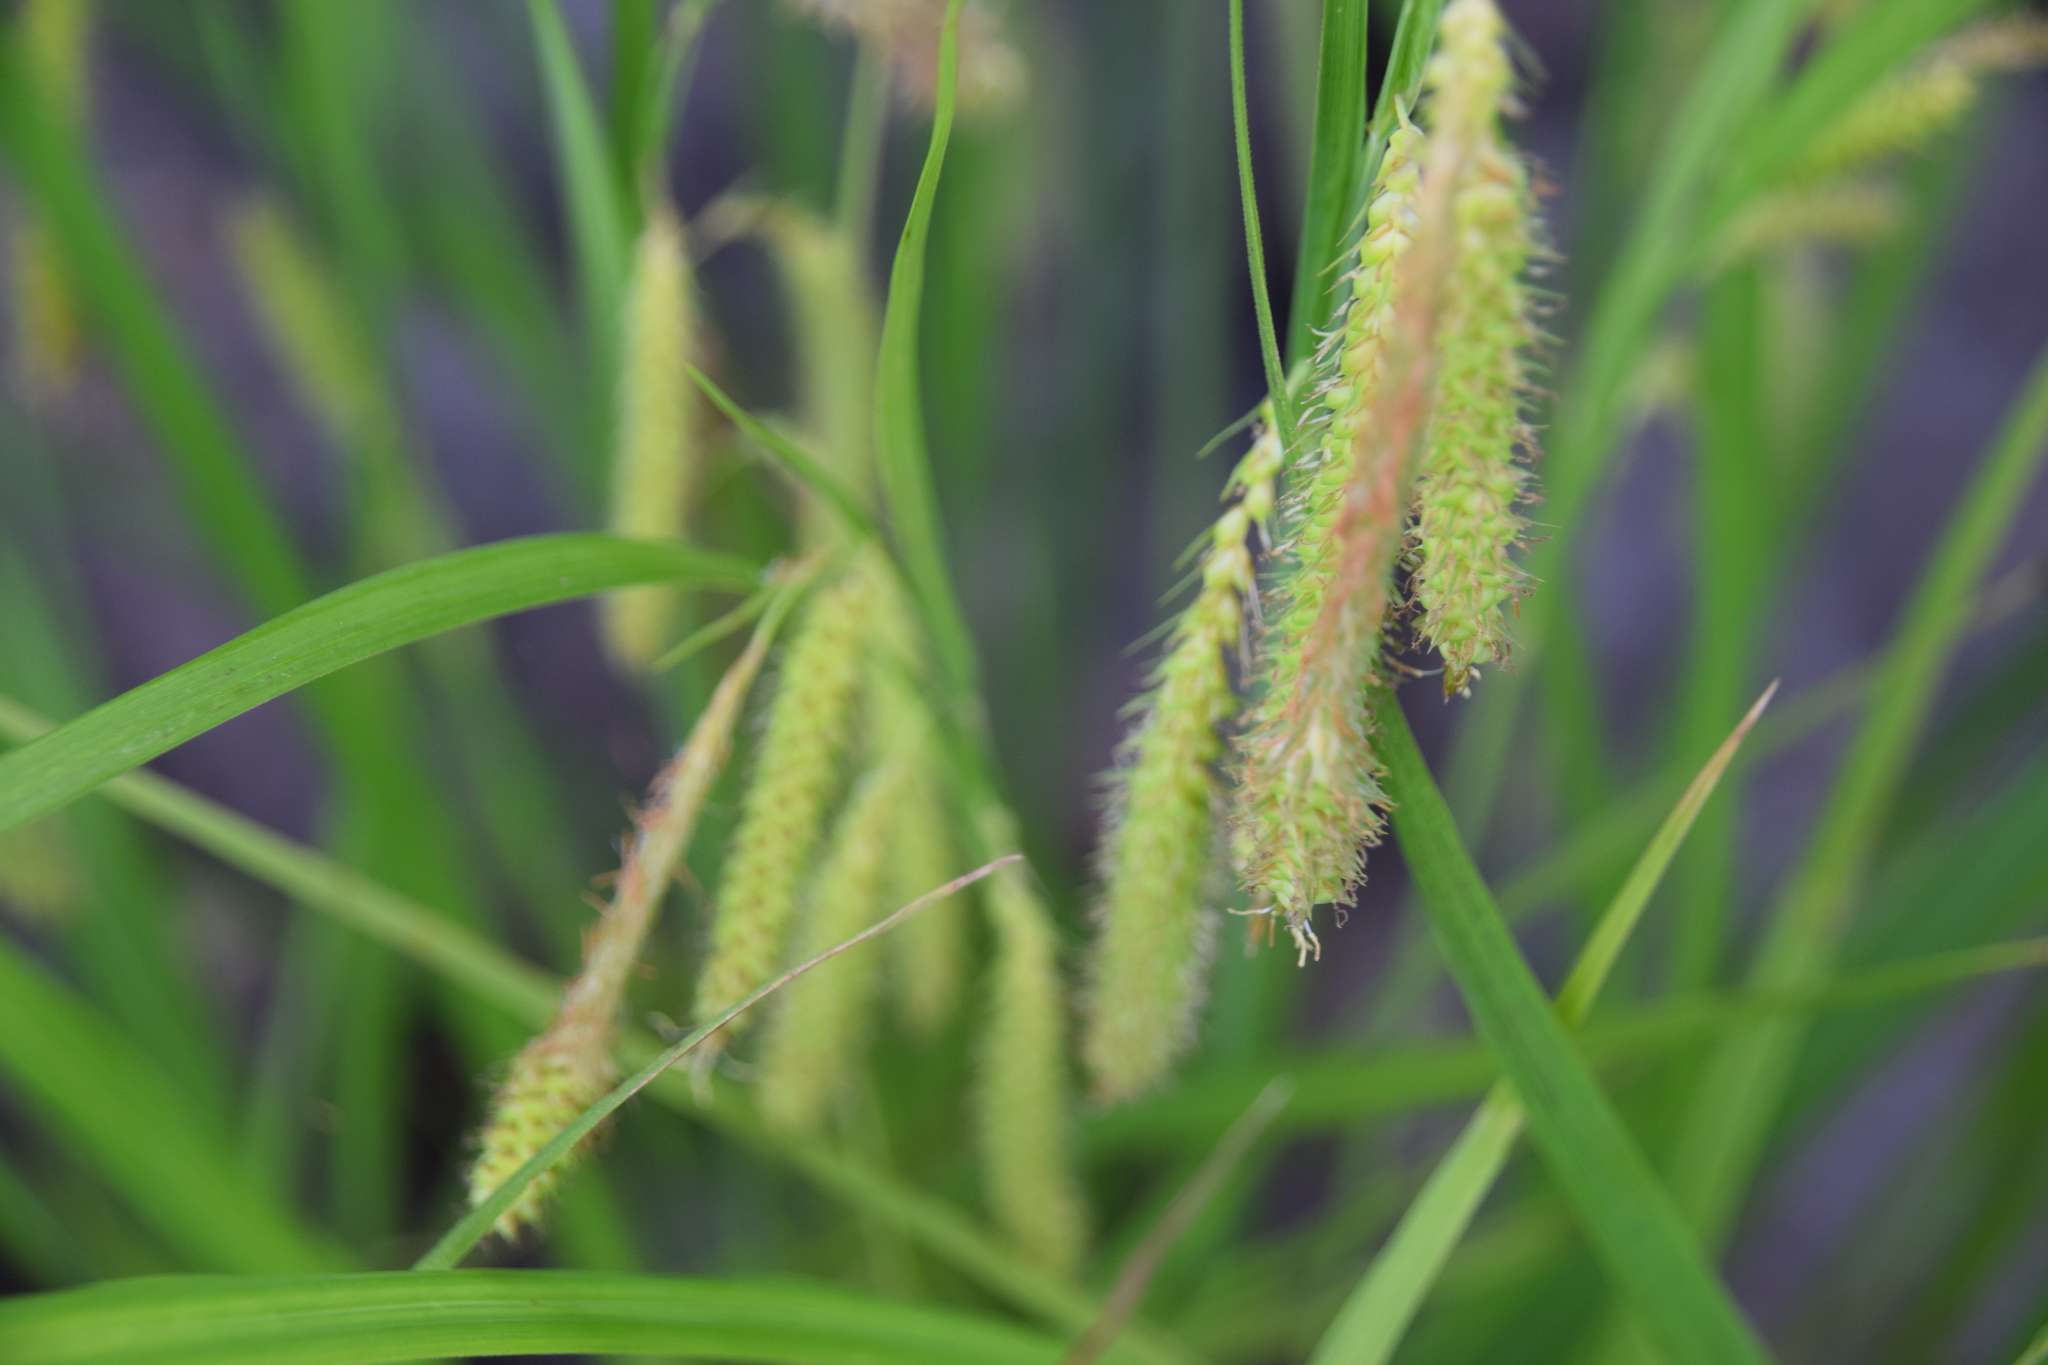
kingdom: Plantae
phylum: Tracheophyta
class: Liliopsida
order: Poales
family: Cyperaceae
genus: Carex
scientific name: Carex crinita
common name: Fringed sedge
